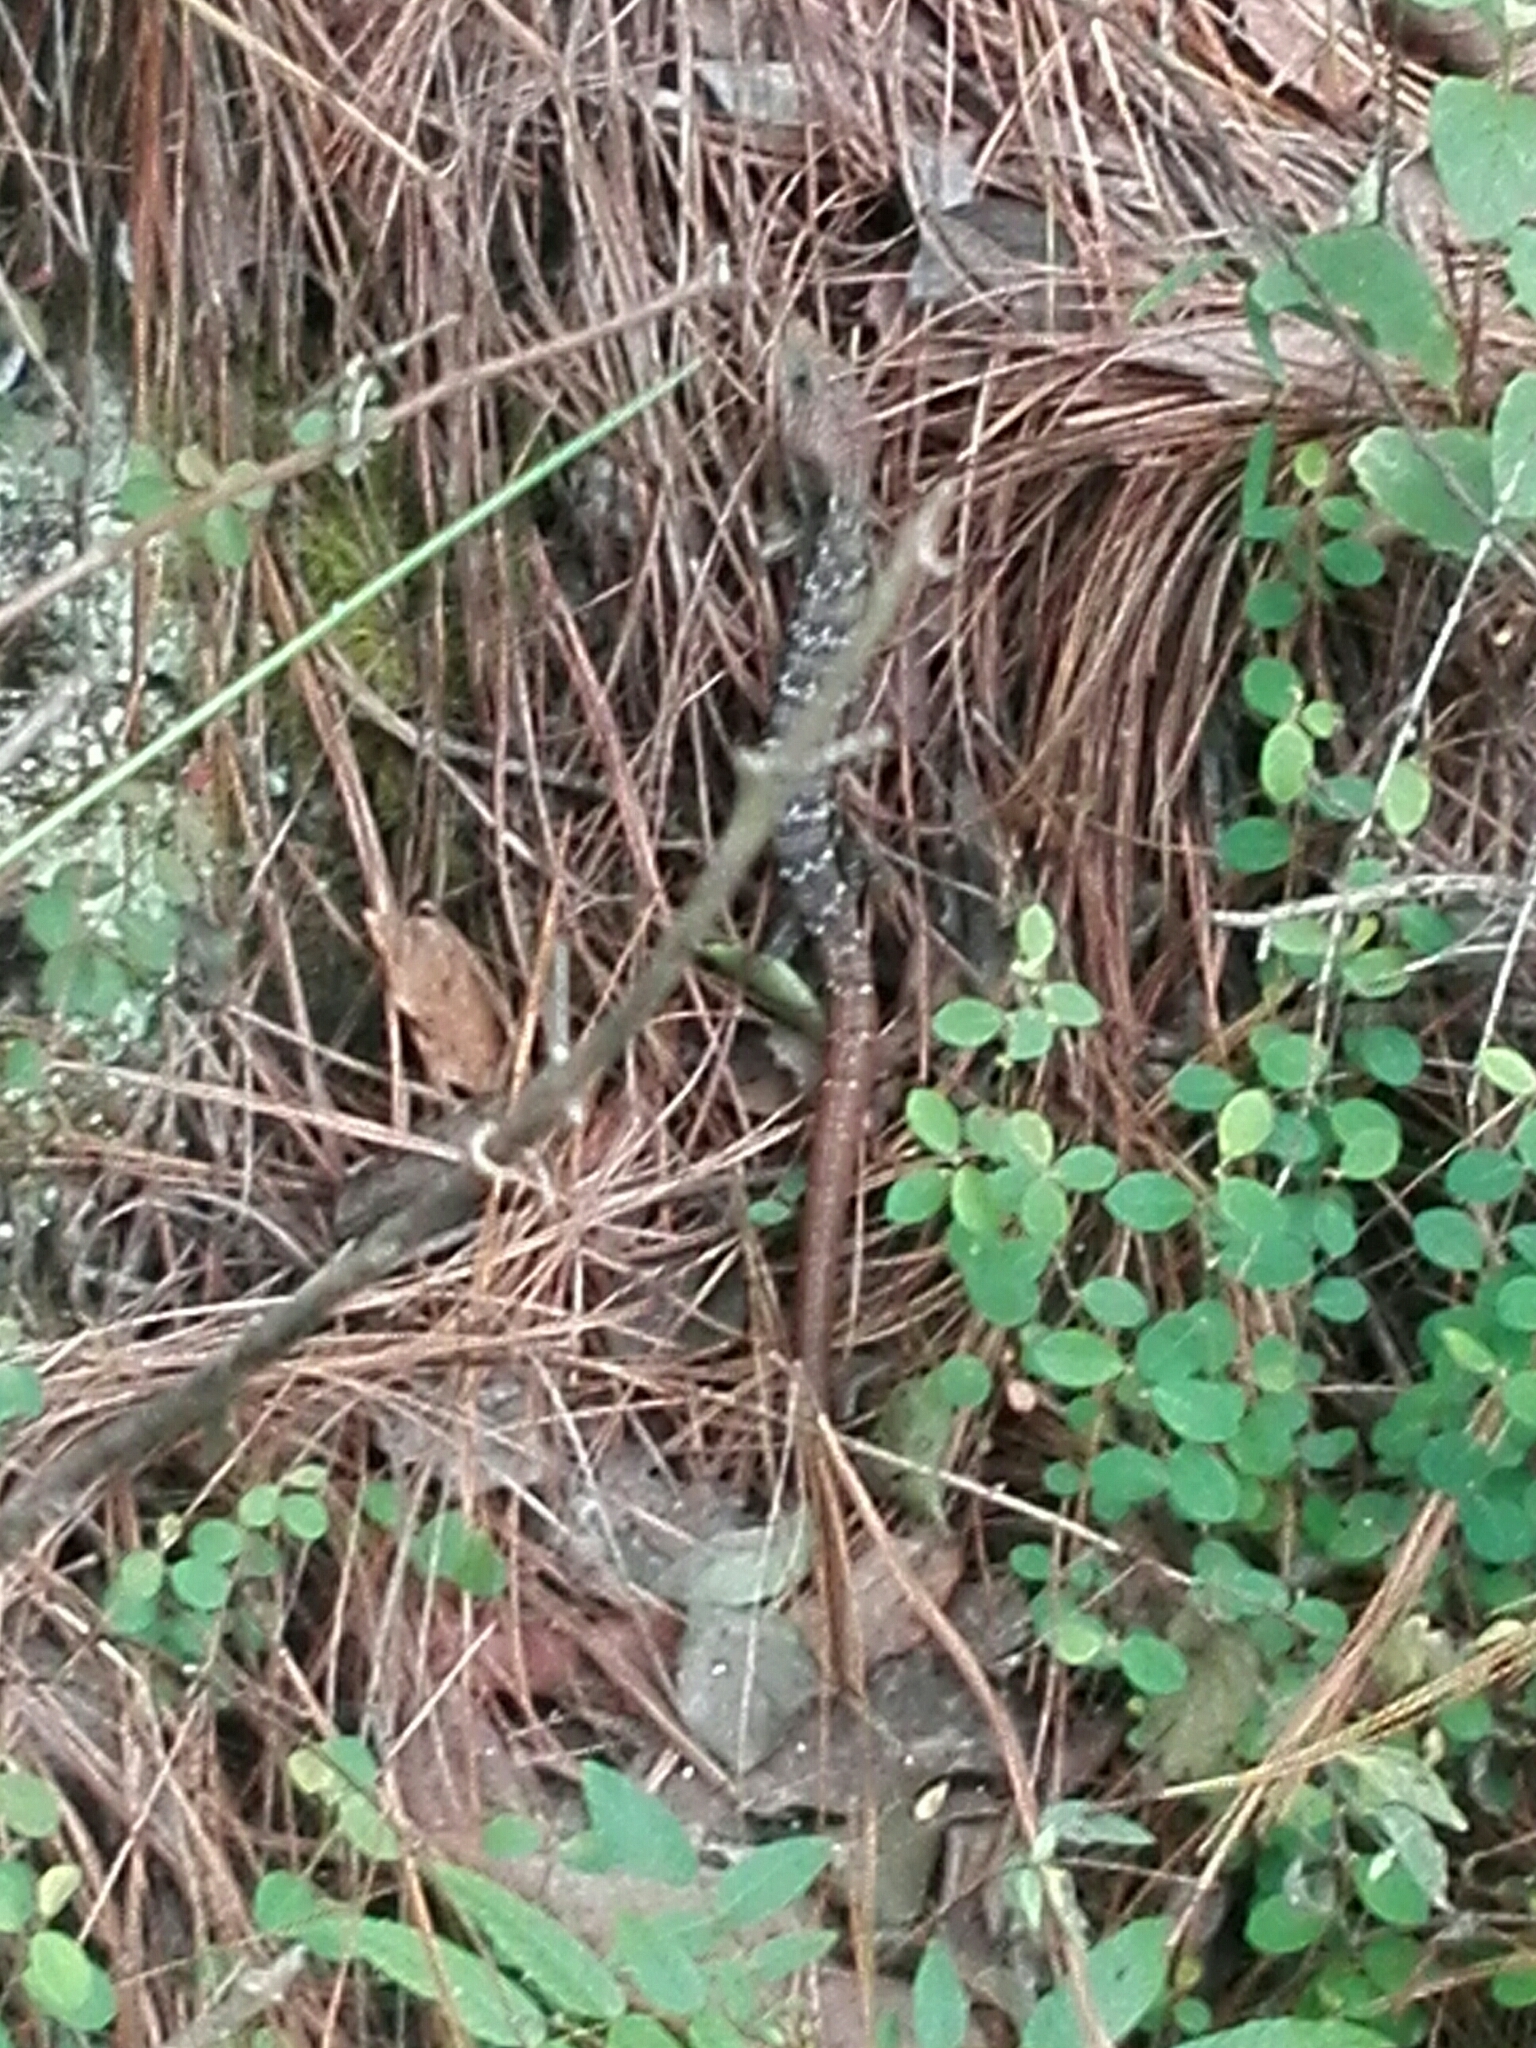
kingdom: Animalia
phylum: Chordata
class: Squamata
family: Anguidae
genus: Gerrhonotus
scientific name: Gerrhonotus infernalis
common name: Texas alligator lizard
